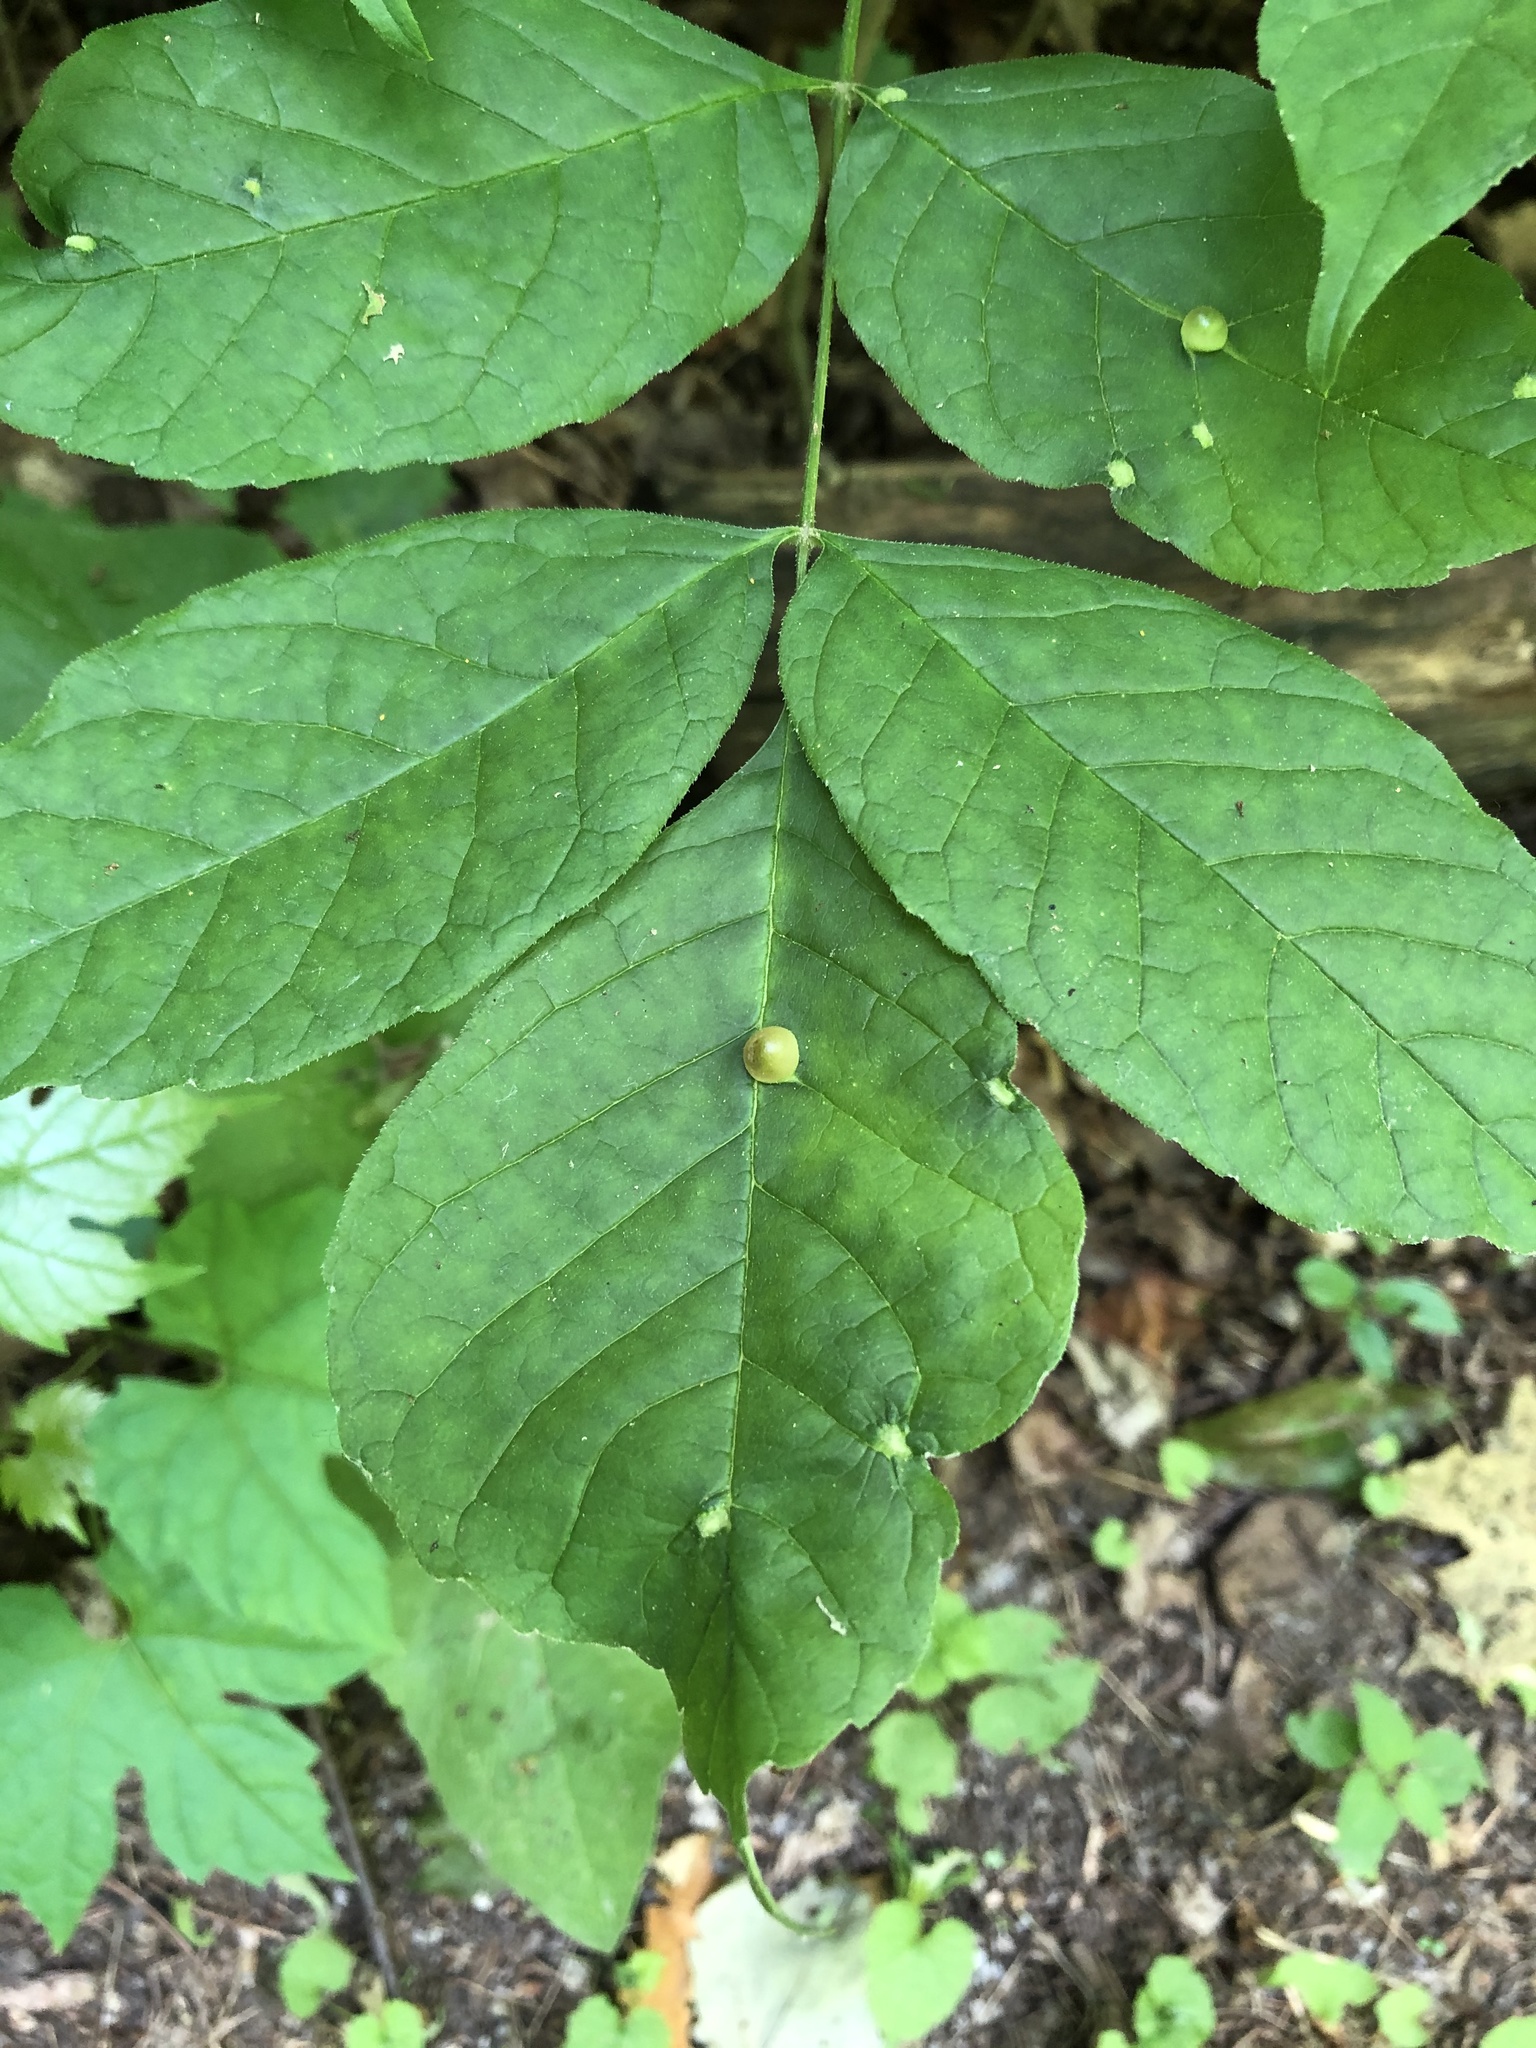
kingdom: Animalia
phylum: Arthropoda
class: Insecta
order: Diptera
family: Cecidomyiidae
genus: Dasineura
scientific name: Dasineura pellex
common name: Ash bullet gall midge
